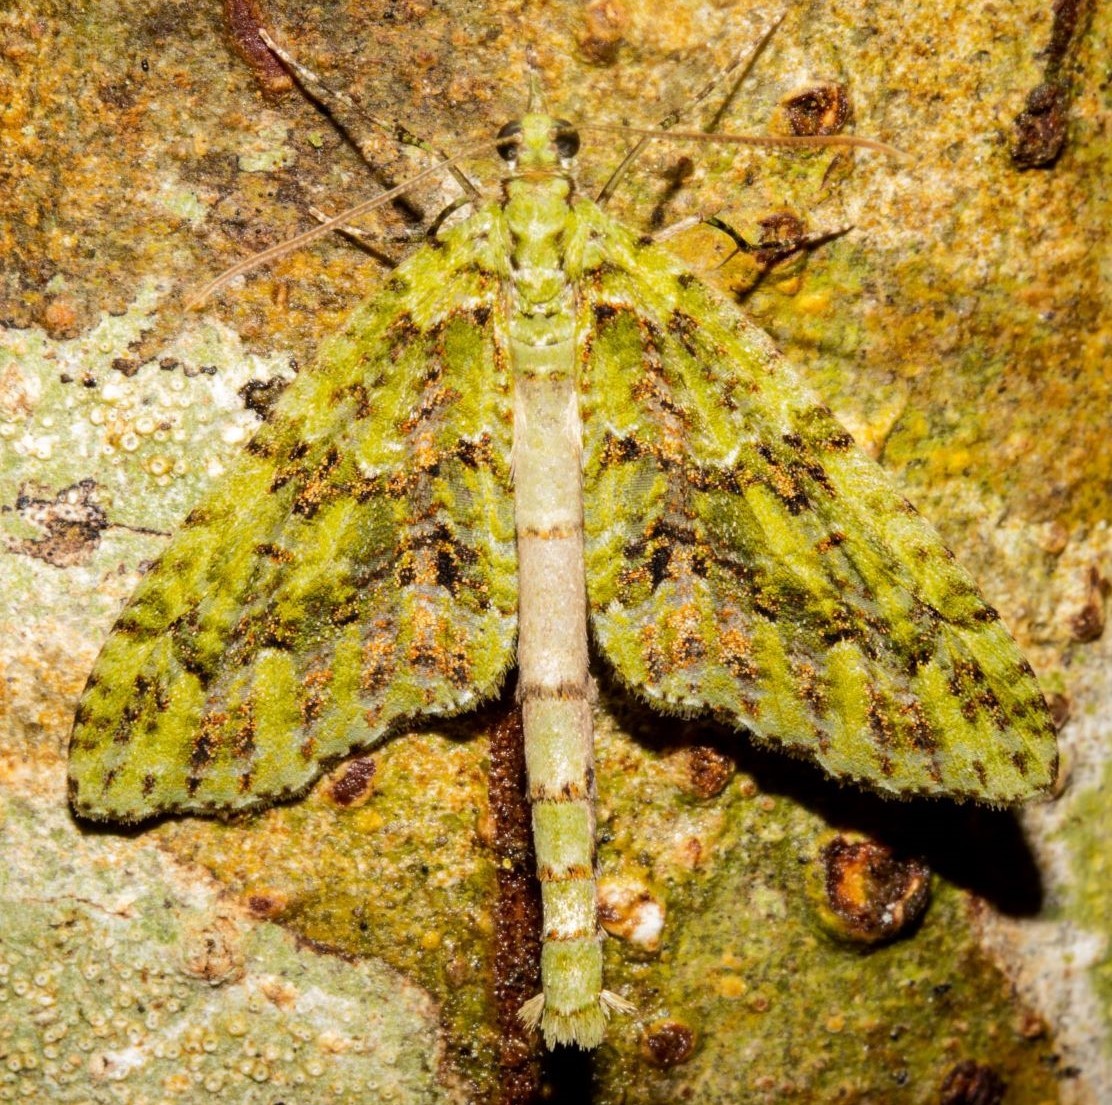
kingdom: Animalia
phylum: Arthropoda
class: Insecta
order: Lepidoptera
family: Geometridae
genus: Tatosoma
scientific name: Tatosoma tipulata
